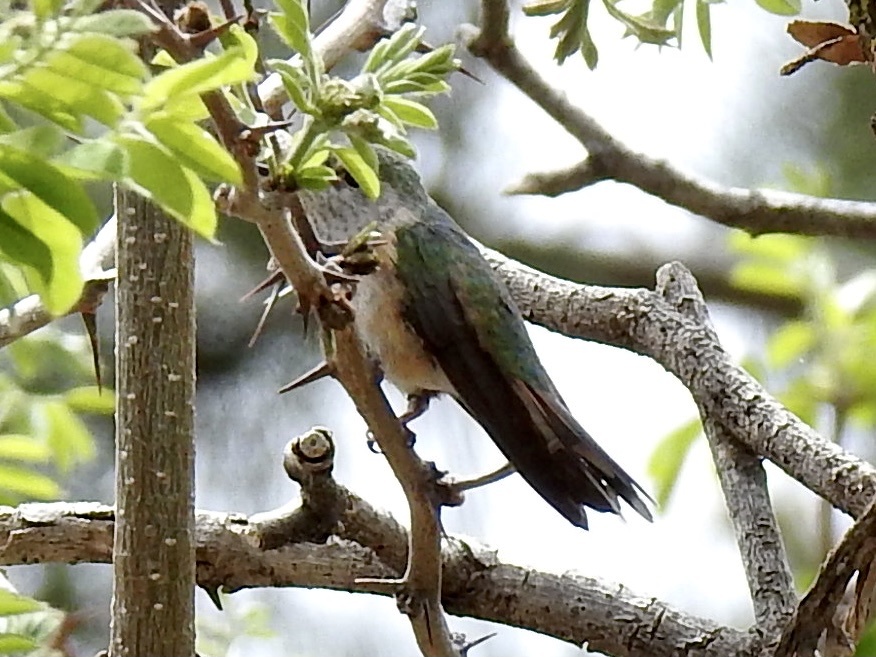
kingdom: Animalia
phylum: Chordata
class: Aves
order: Apodiformes
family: Trochilidae
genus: Selasphorus
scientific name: Selasphorus platycercus
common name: Broad-tailed hummingbird
